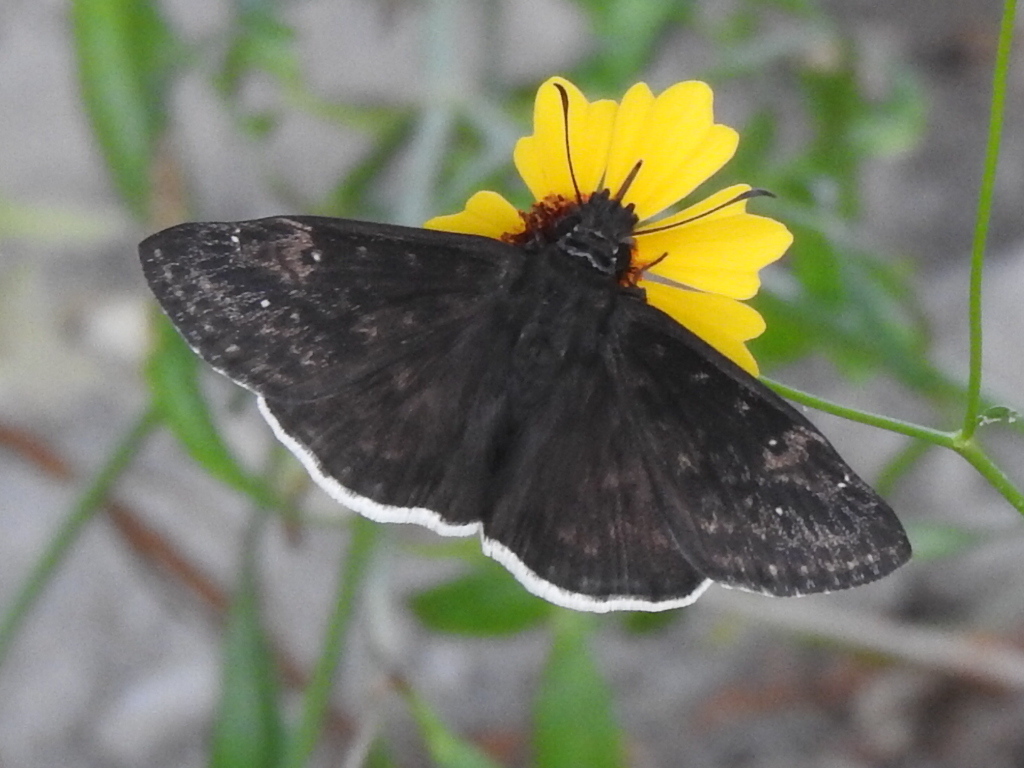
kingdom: Animalia
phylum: Arthropoda
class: Insecta
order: Lepidoptera
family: Hesperiidae
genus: Erynnis
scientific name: Erynnis funeralis
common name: Funereal duskywing
